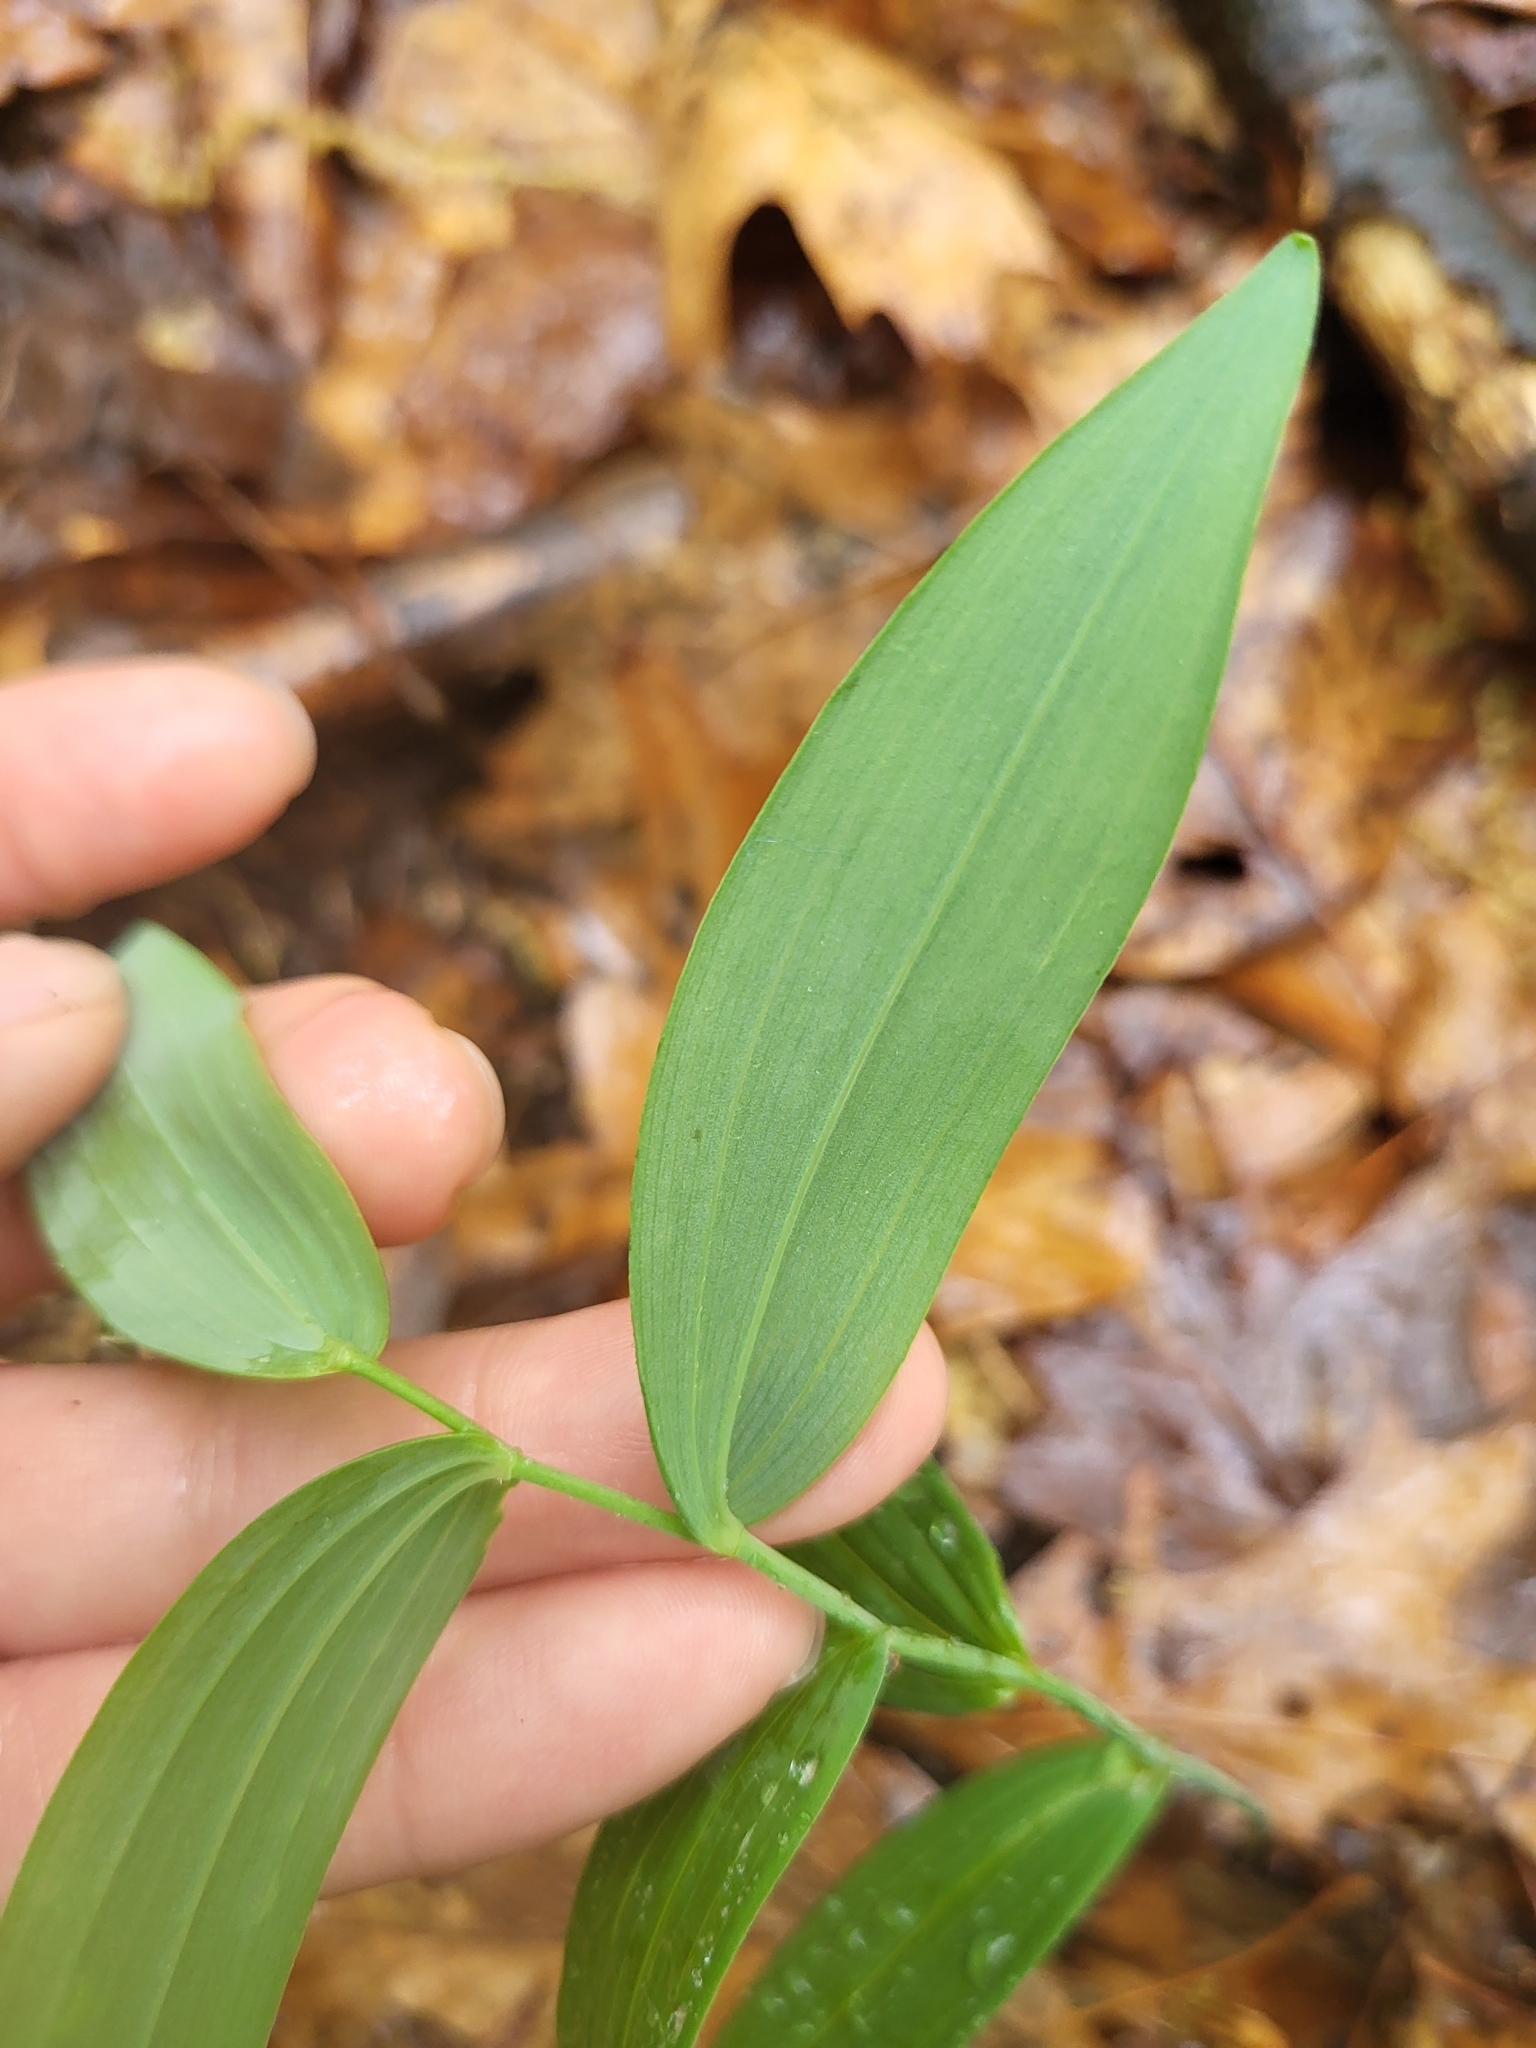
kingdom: Plantae
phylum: Tracheophyta
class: Liliopsida
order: Asparagales
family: Asparagaceae
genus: Polygonatum
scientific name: Polygonatum biflorum
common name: American solomon's-seal
